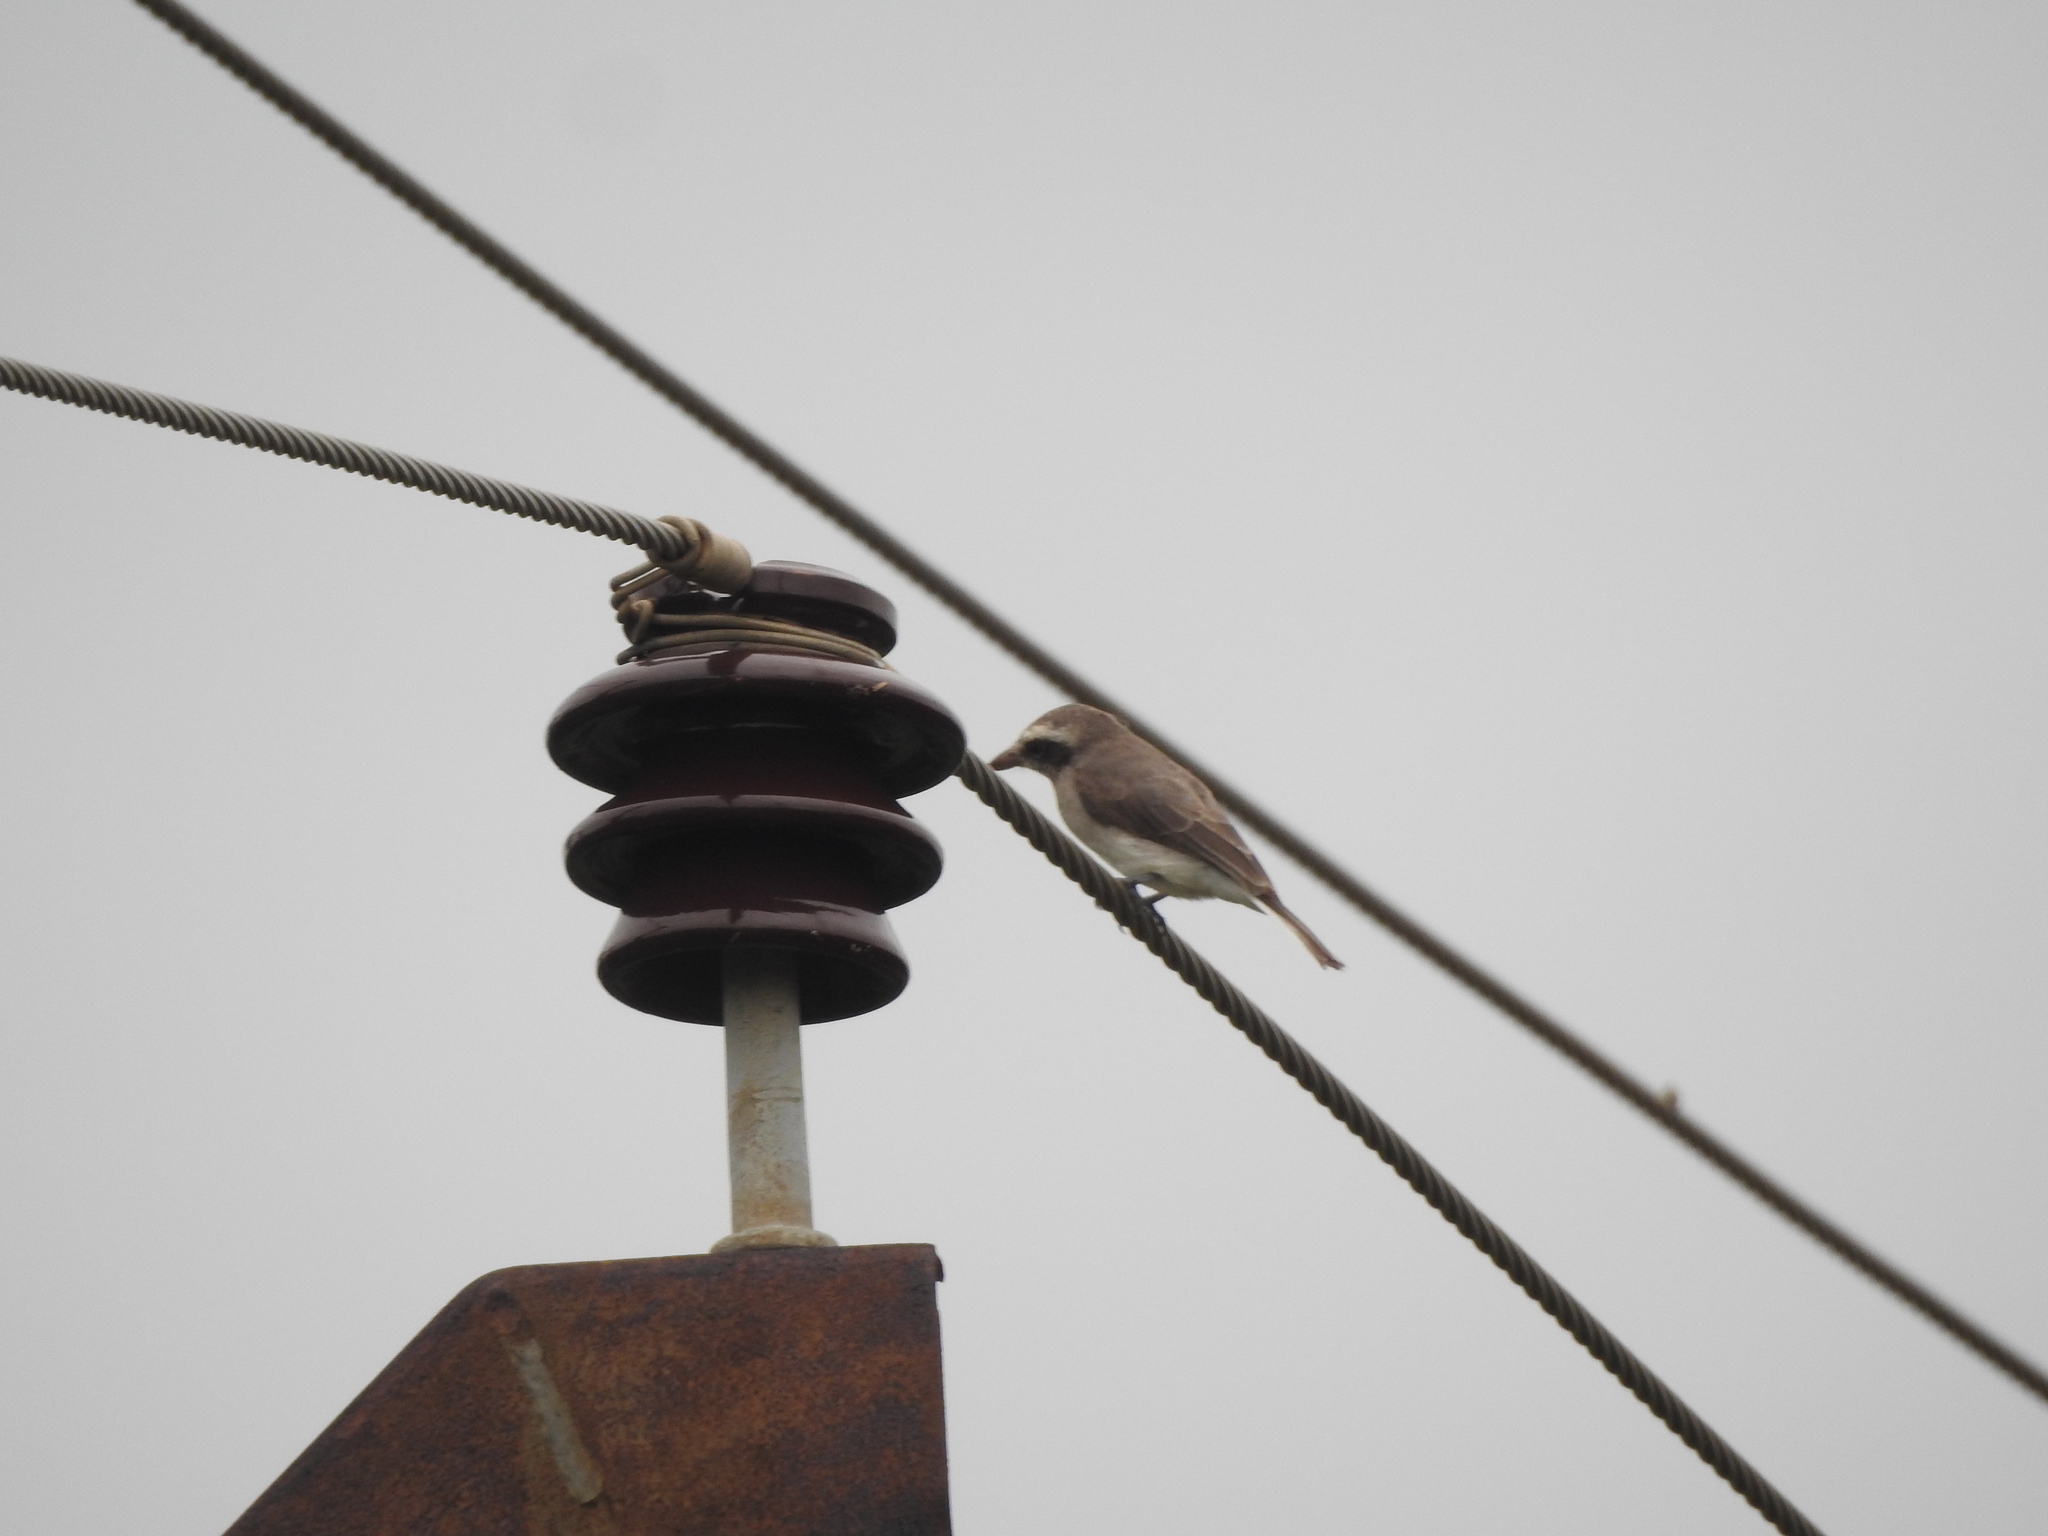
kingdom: Animalia
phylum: Chordata
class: Aves
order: Passeriformes
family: Tephrodornithidae
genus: Tephrodornis
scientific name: Tephrodornis pondicerianus
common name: Common woodshrike
